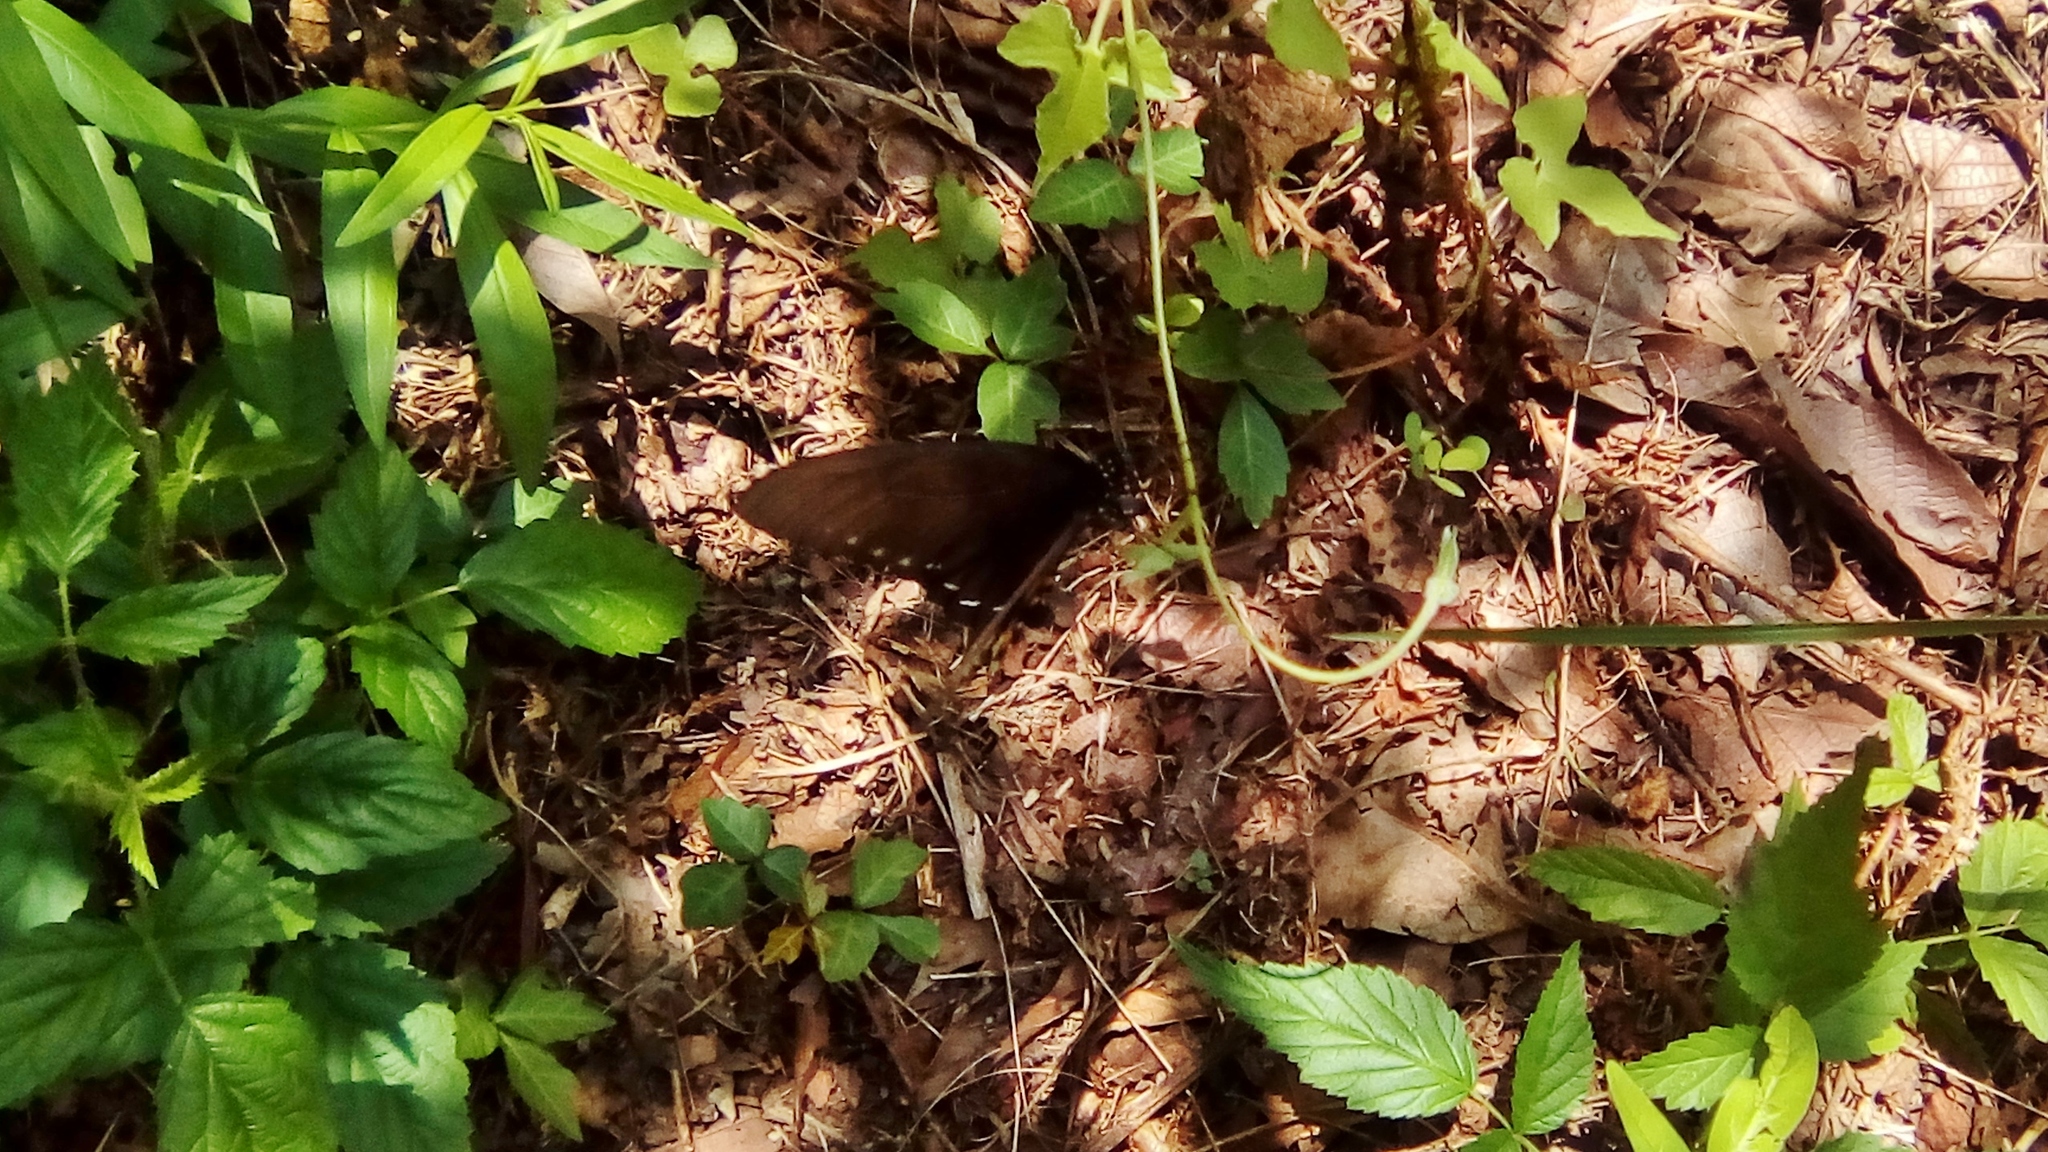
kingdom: Animalia
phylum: Arthropoda
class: Insecta
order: Lepidoptera
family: Papilionidae
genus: Battus
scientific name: Battus philenor
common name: Pipevine swallowtail
